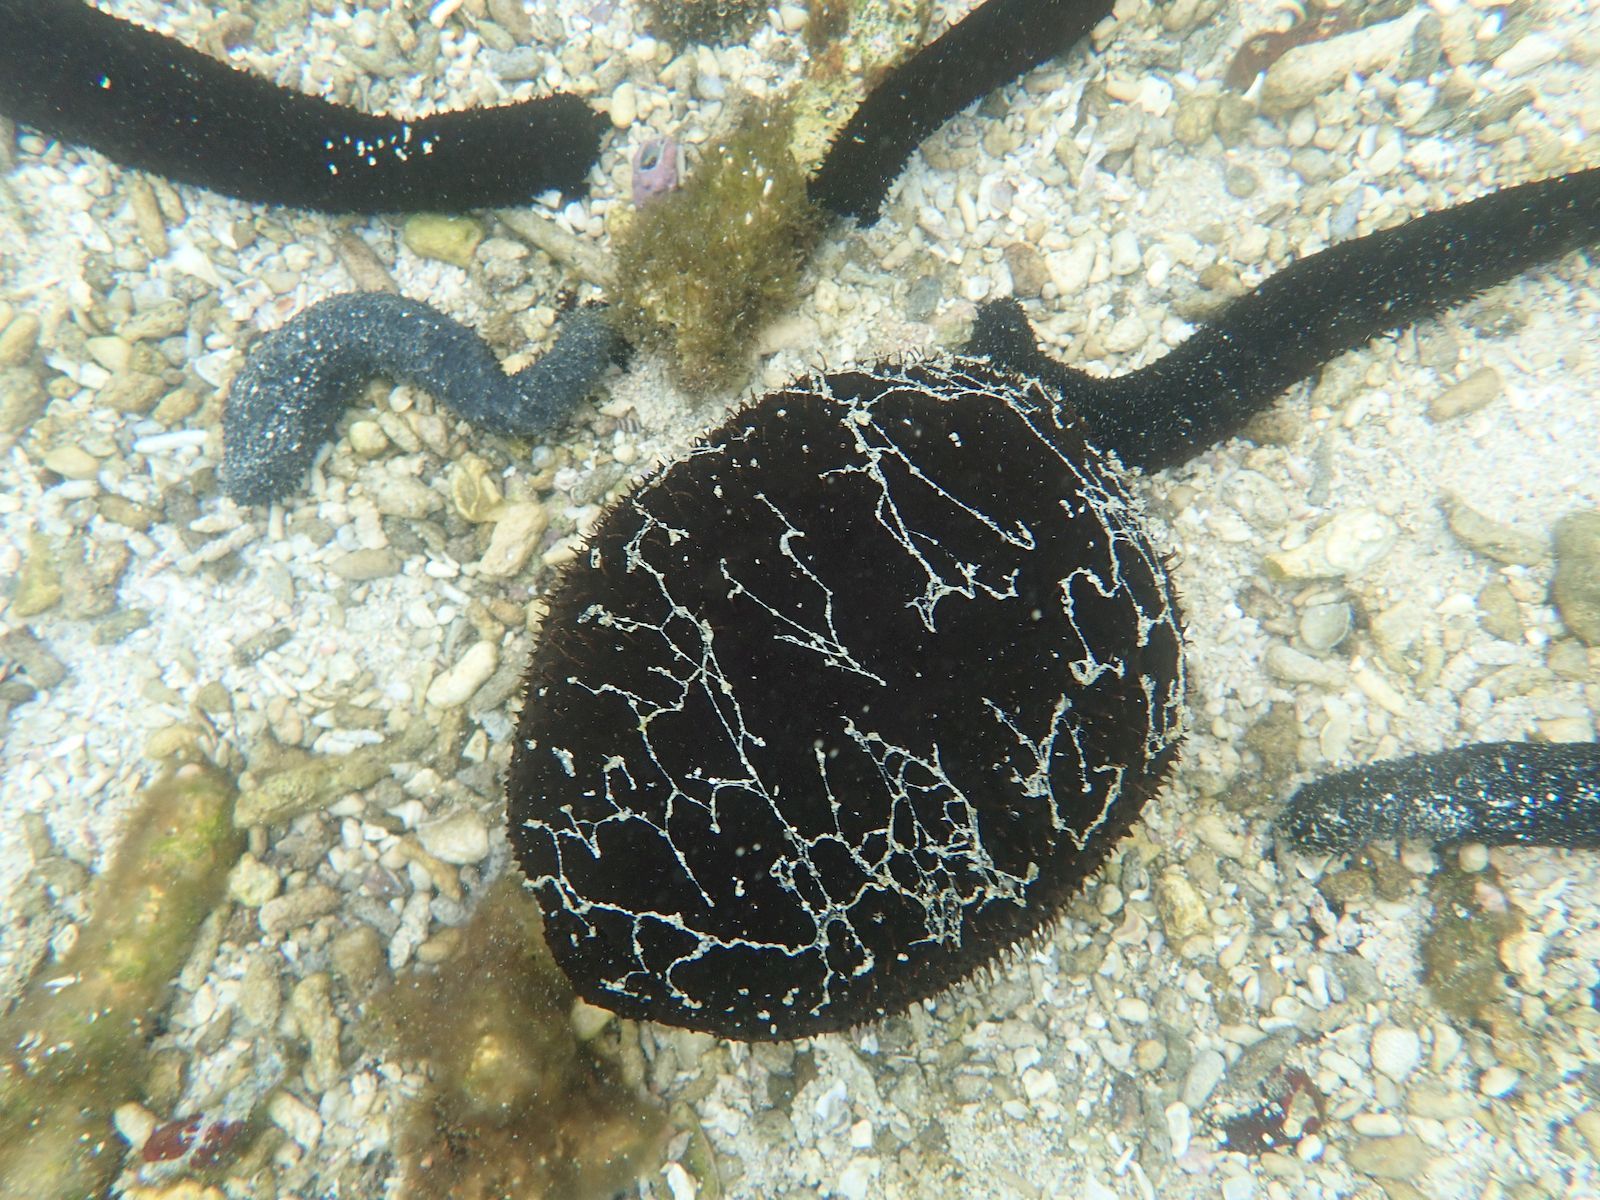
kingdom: Animalia
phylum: Echinodermata
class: Holothuroidea
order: Holothuriida
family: Holothuriidae
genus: Actinopyga
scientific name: Actinopyga miliaris
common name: Blackfish
